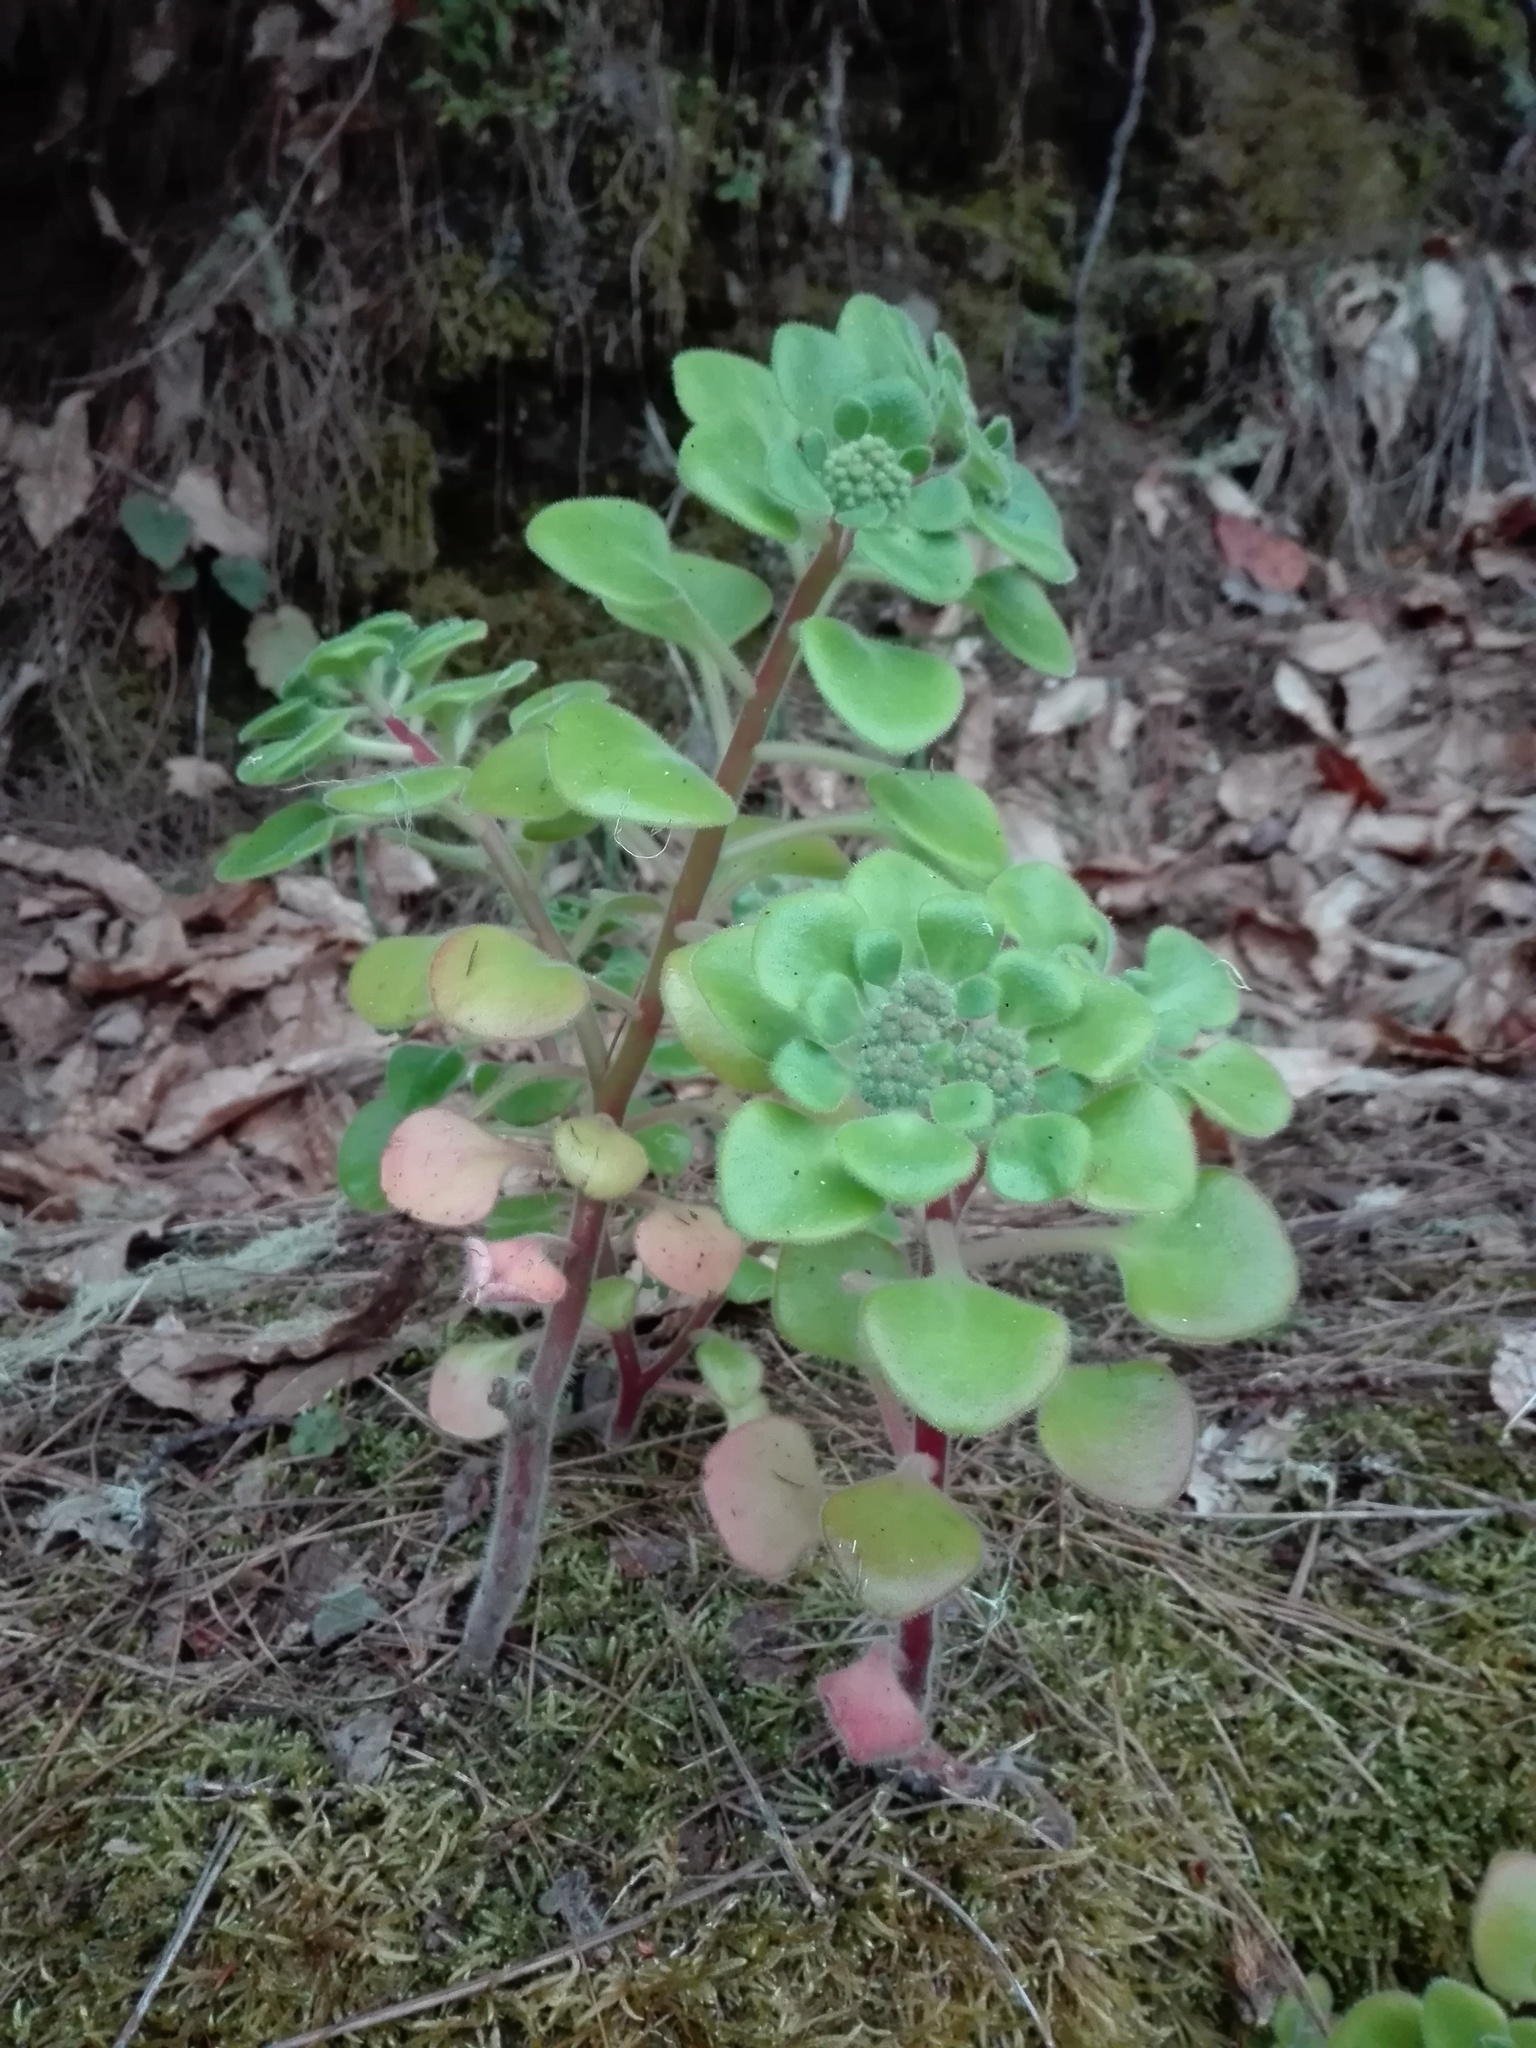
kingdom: Plantae
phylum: Tracheophyta
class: Magnoliopsida
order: Saxifragales
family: Crassulaceae
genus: Aichryson
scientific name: Aichryson laxum
